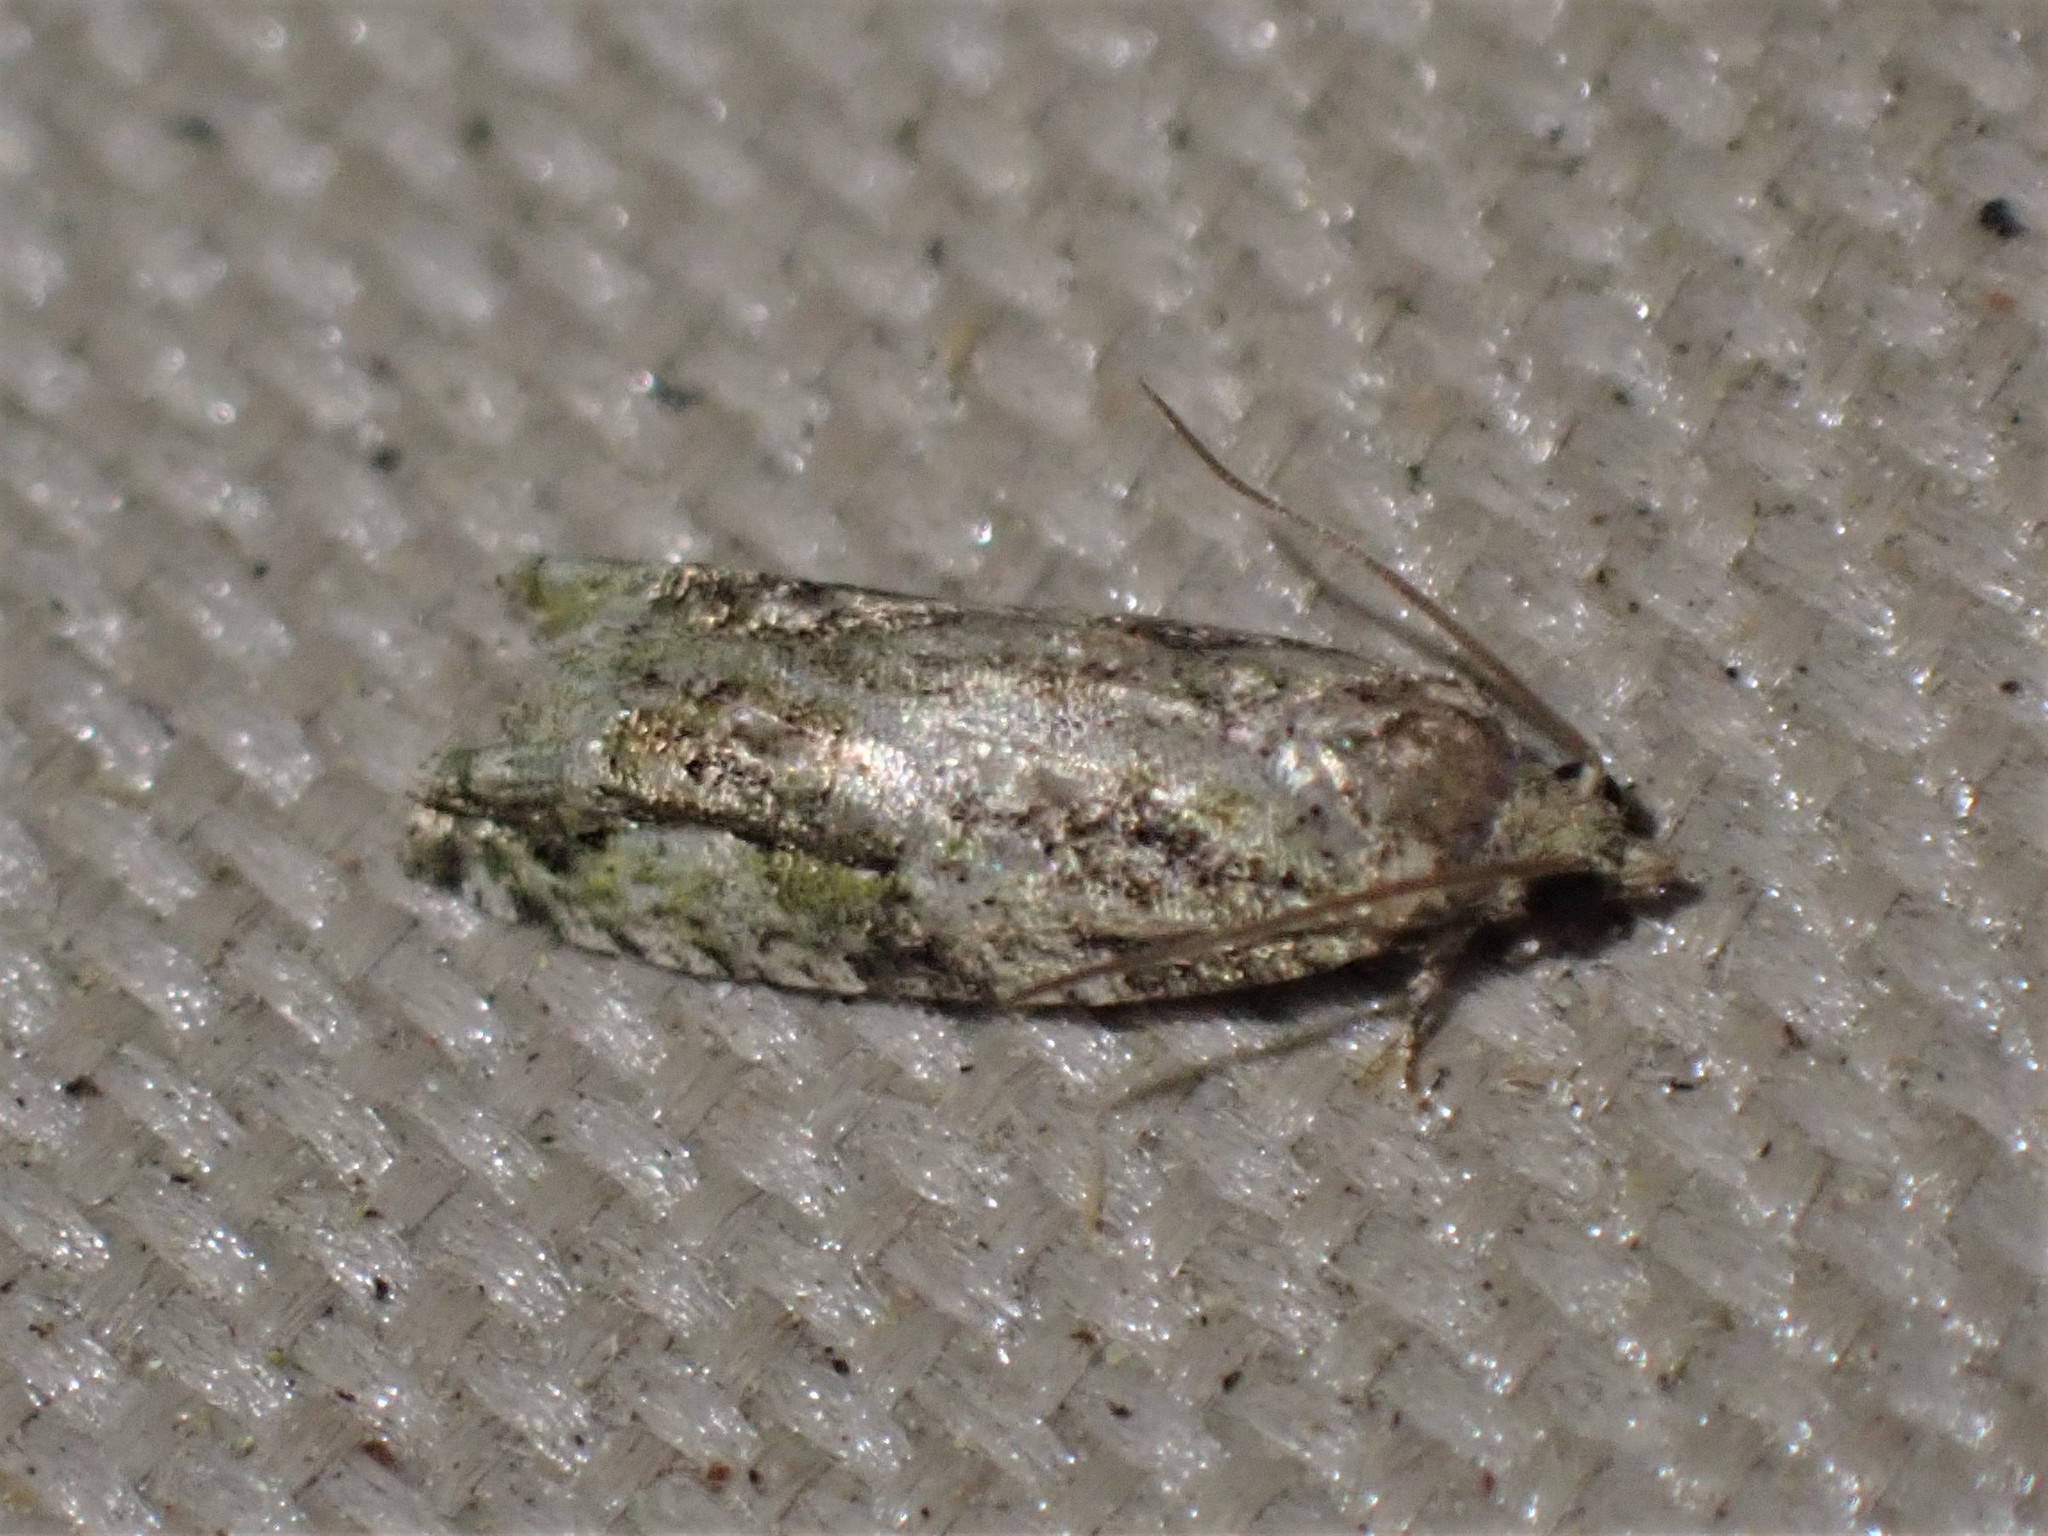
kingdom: Animalia
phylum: Arthropoda
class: Insecta
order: Lepidoptera
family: Tortricidae
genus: Proteoteras
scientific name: Proteoteras aesculana
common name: Maple twig borer moth
